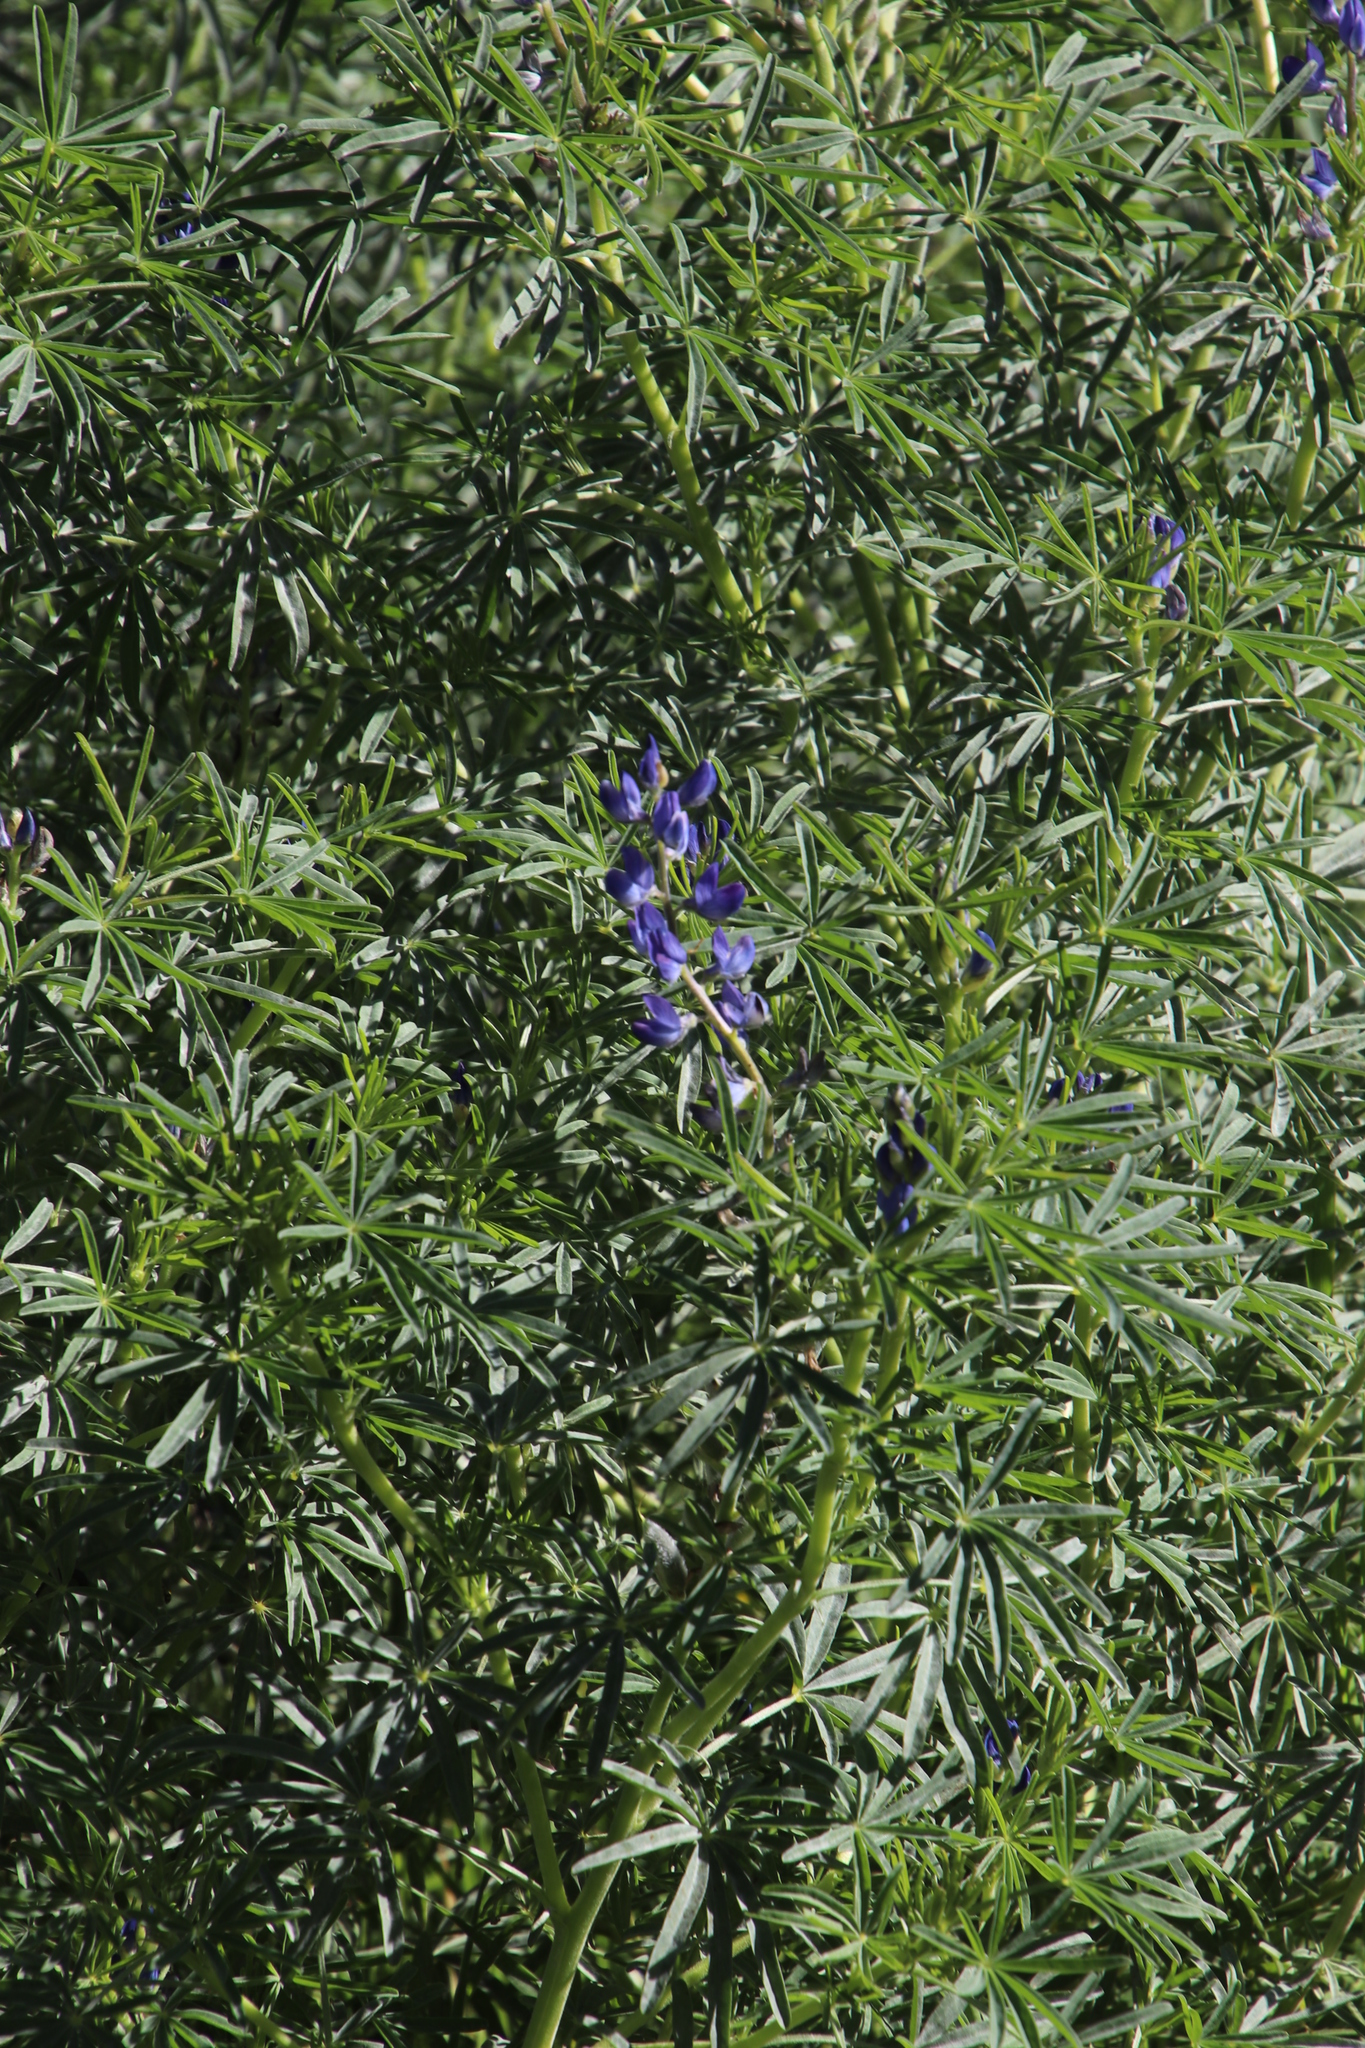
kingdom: Plantae
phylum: Tracheophyta
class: Magnoliopsida
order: Fabales
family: Fabaceae
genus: Lupinus
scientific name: Lupinus angustifolius
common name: Narrow-leaved lupin
